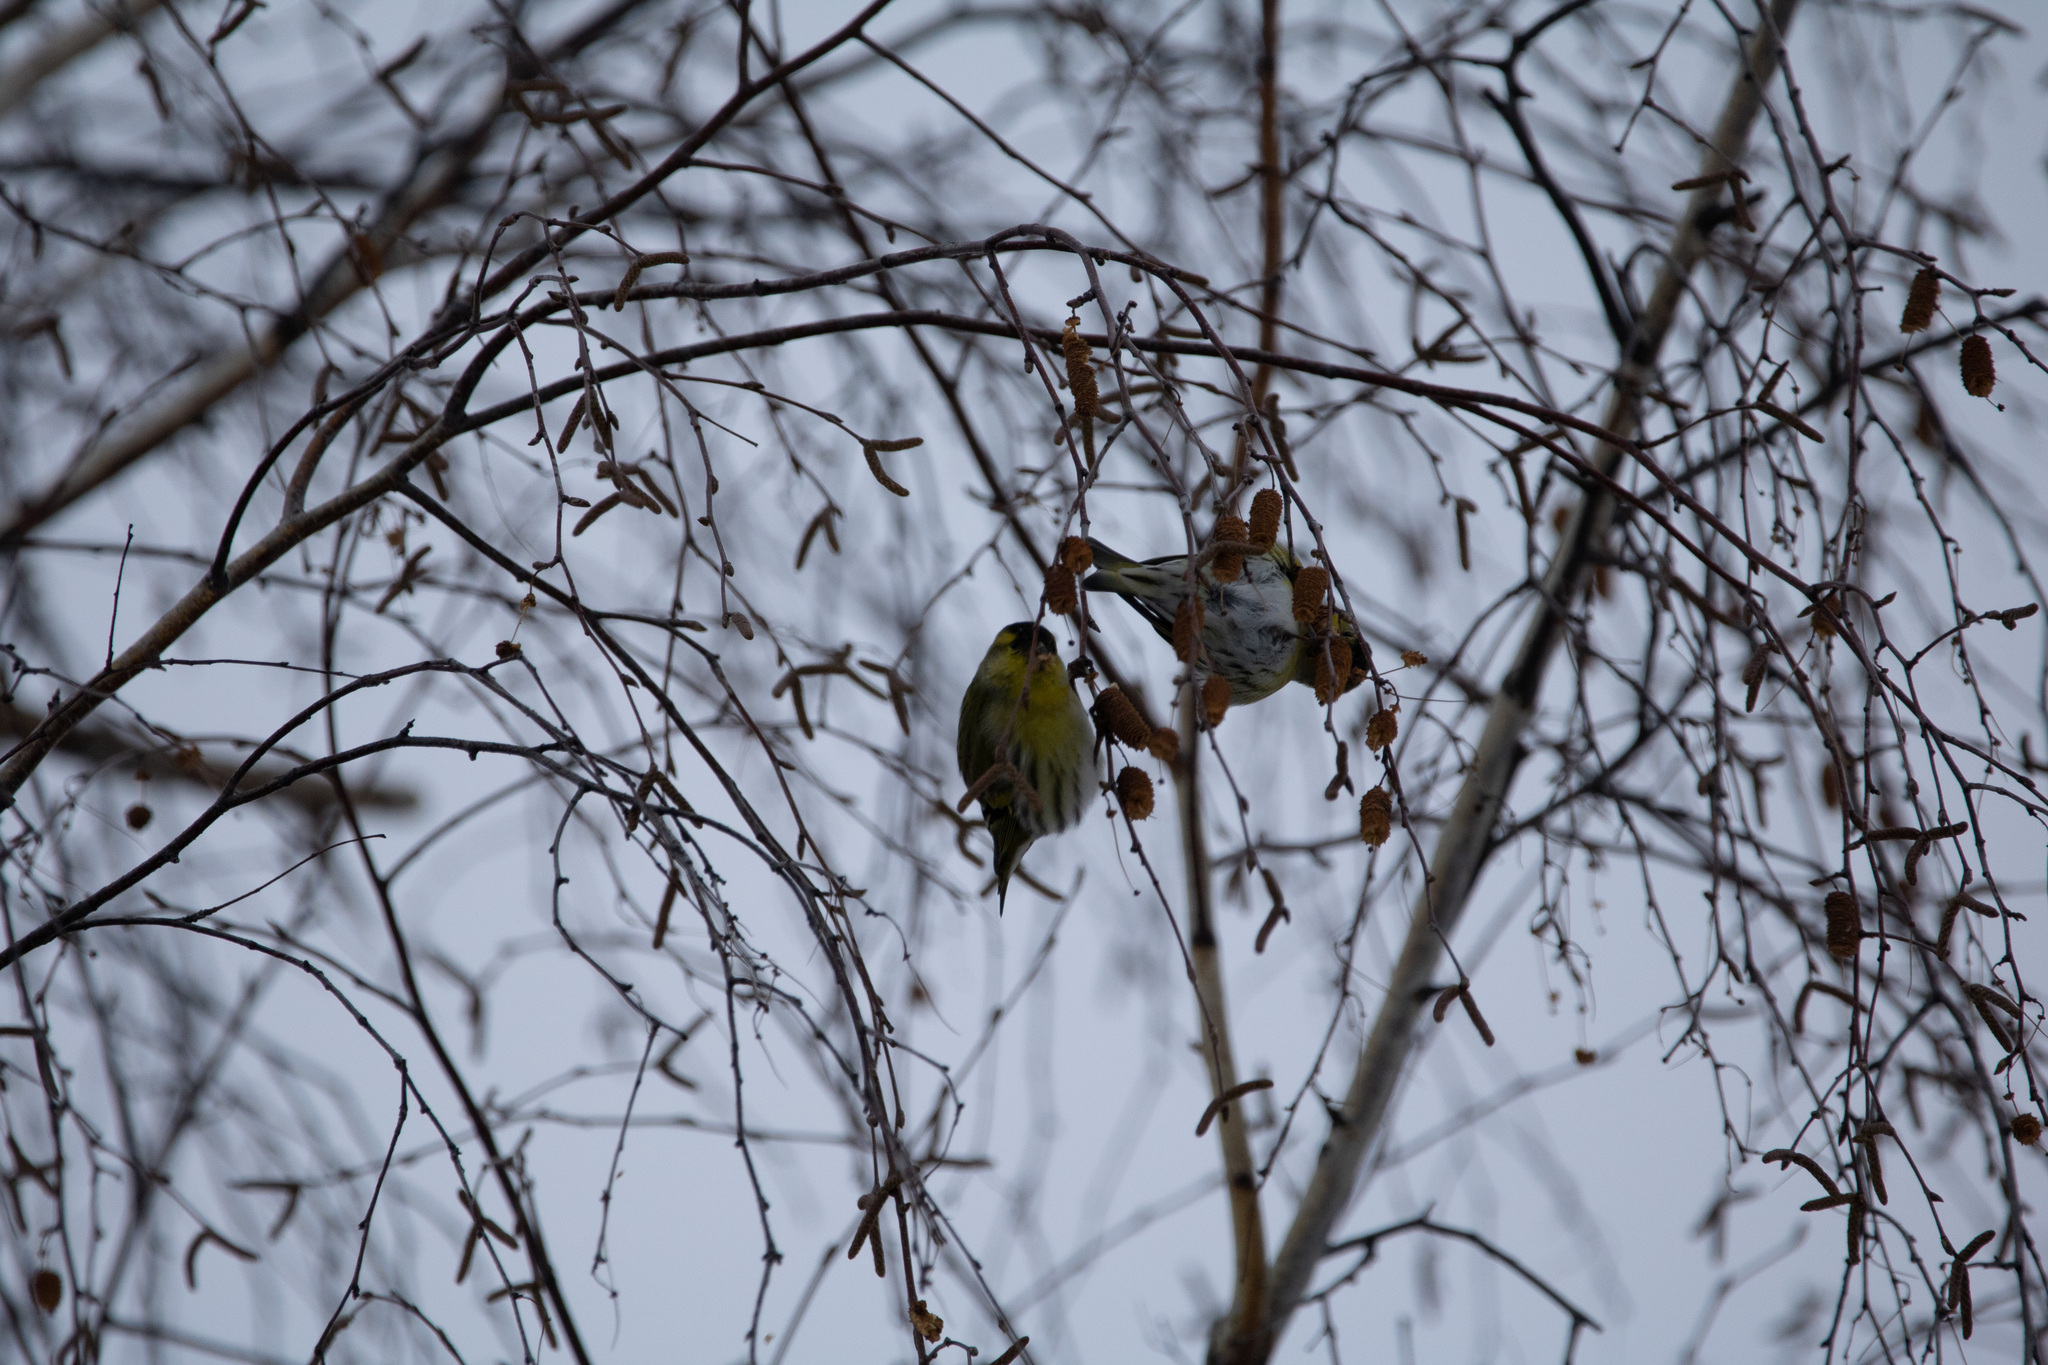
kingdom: Animalia
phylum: Chordata
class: Aves
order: Passeriformes
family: Fringillidae
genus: Spinus
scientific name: Spinus spinus
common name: Eurasian siskin
